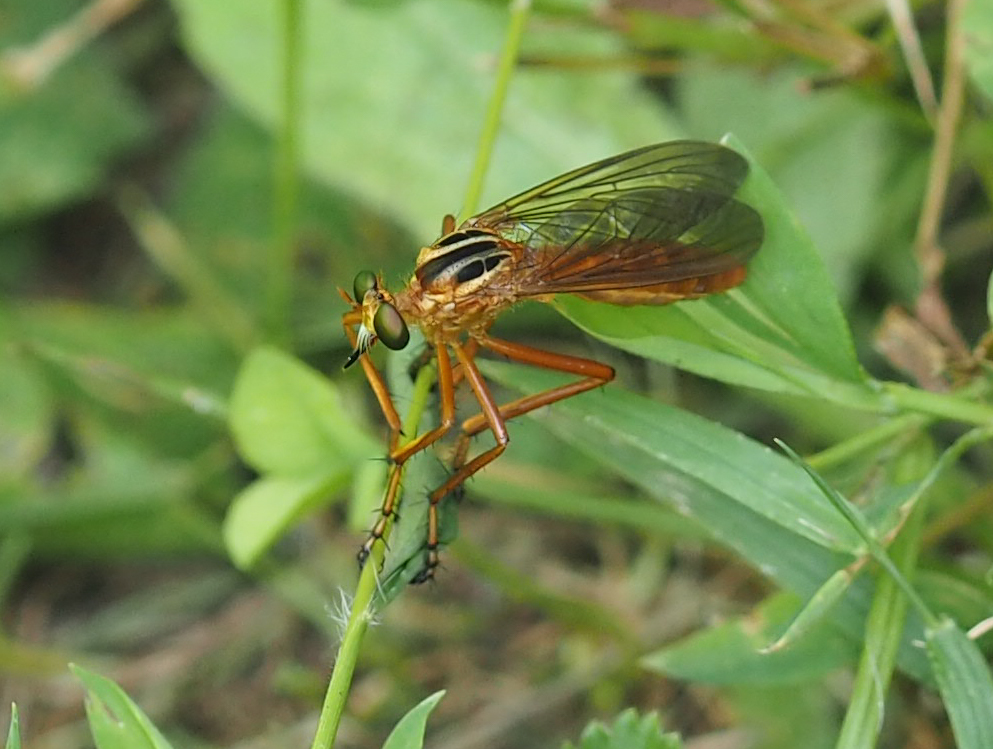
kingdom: Animalia
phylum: Arthropoda
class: Insecta
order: Diptera
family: Asilidae
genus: Diogmites
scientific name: Diogmites neoternatus
